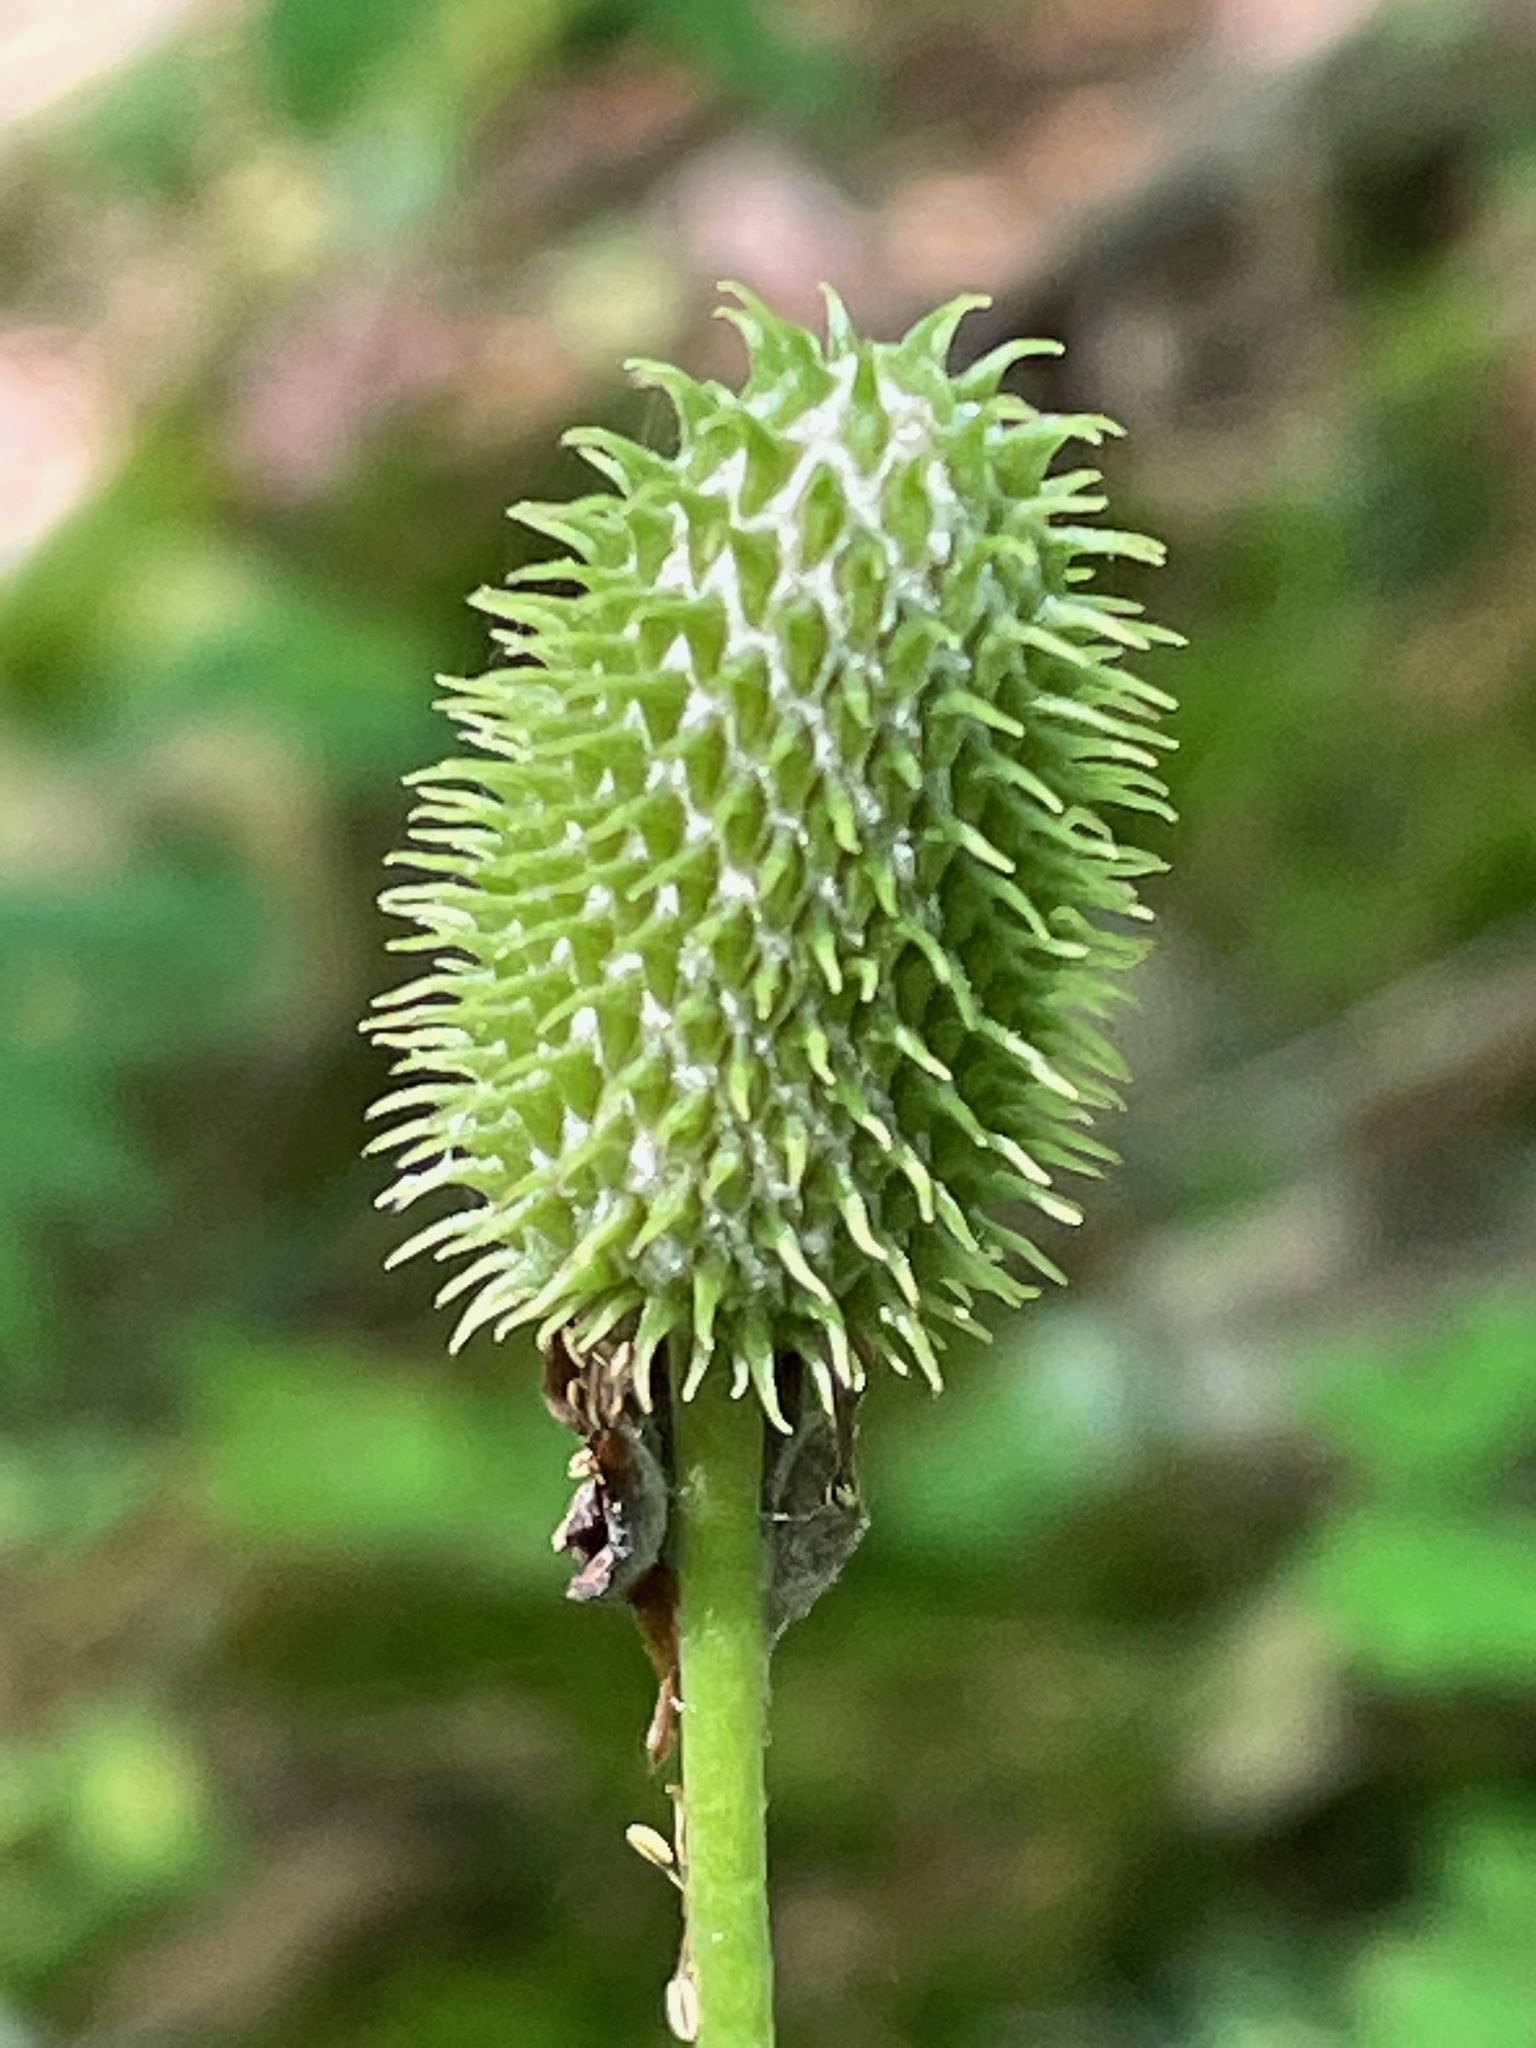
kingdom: Plantae
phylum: Tracheophyta
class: Magnoliopsida
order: Ranunculales
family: Ranunculaceae
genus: Anemone
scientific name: Anemone virginiana
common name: Tall anemone
